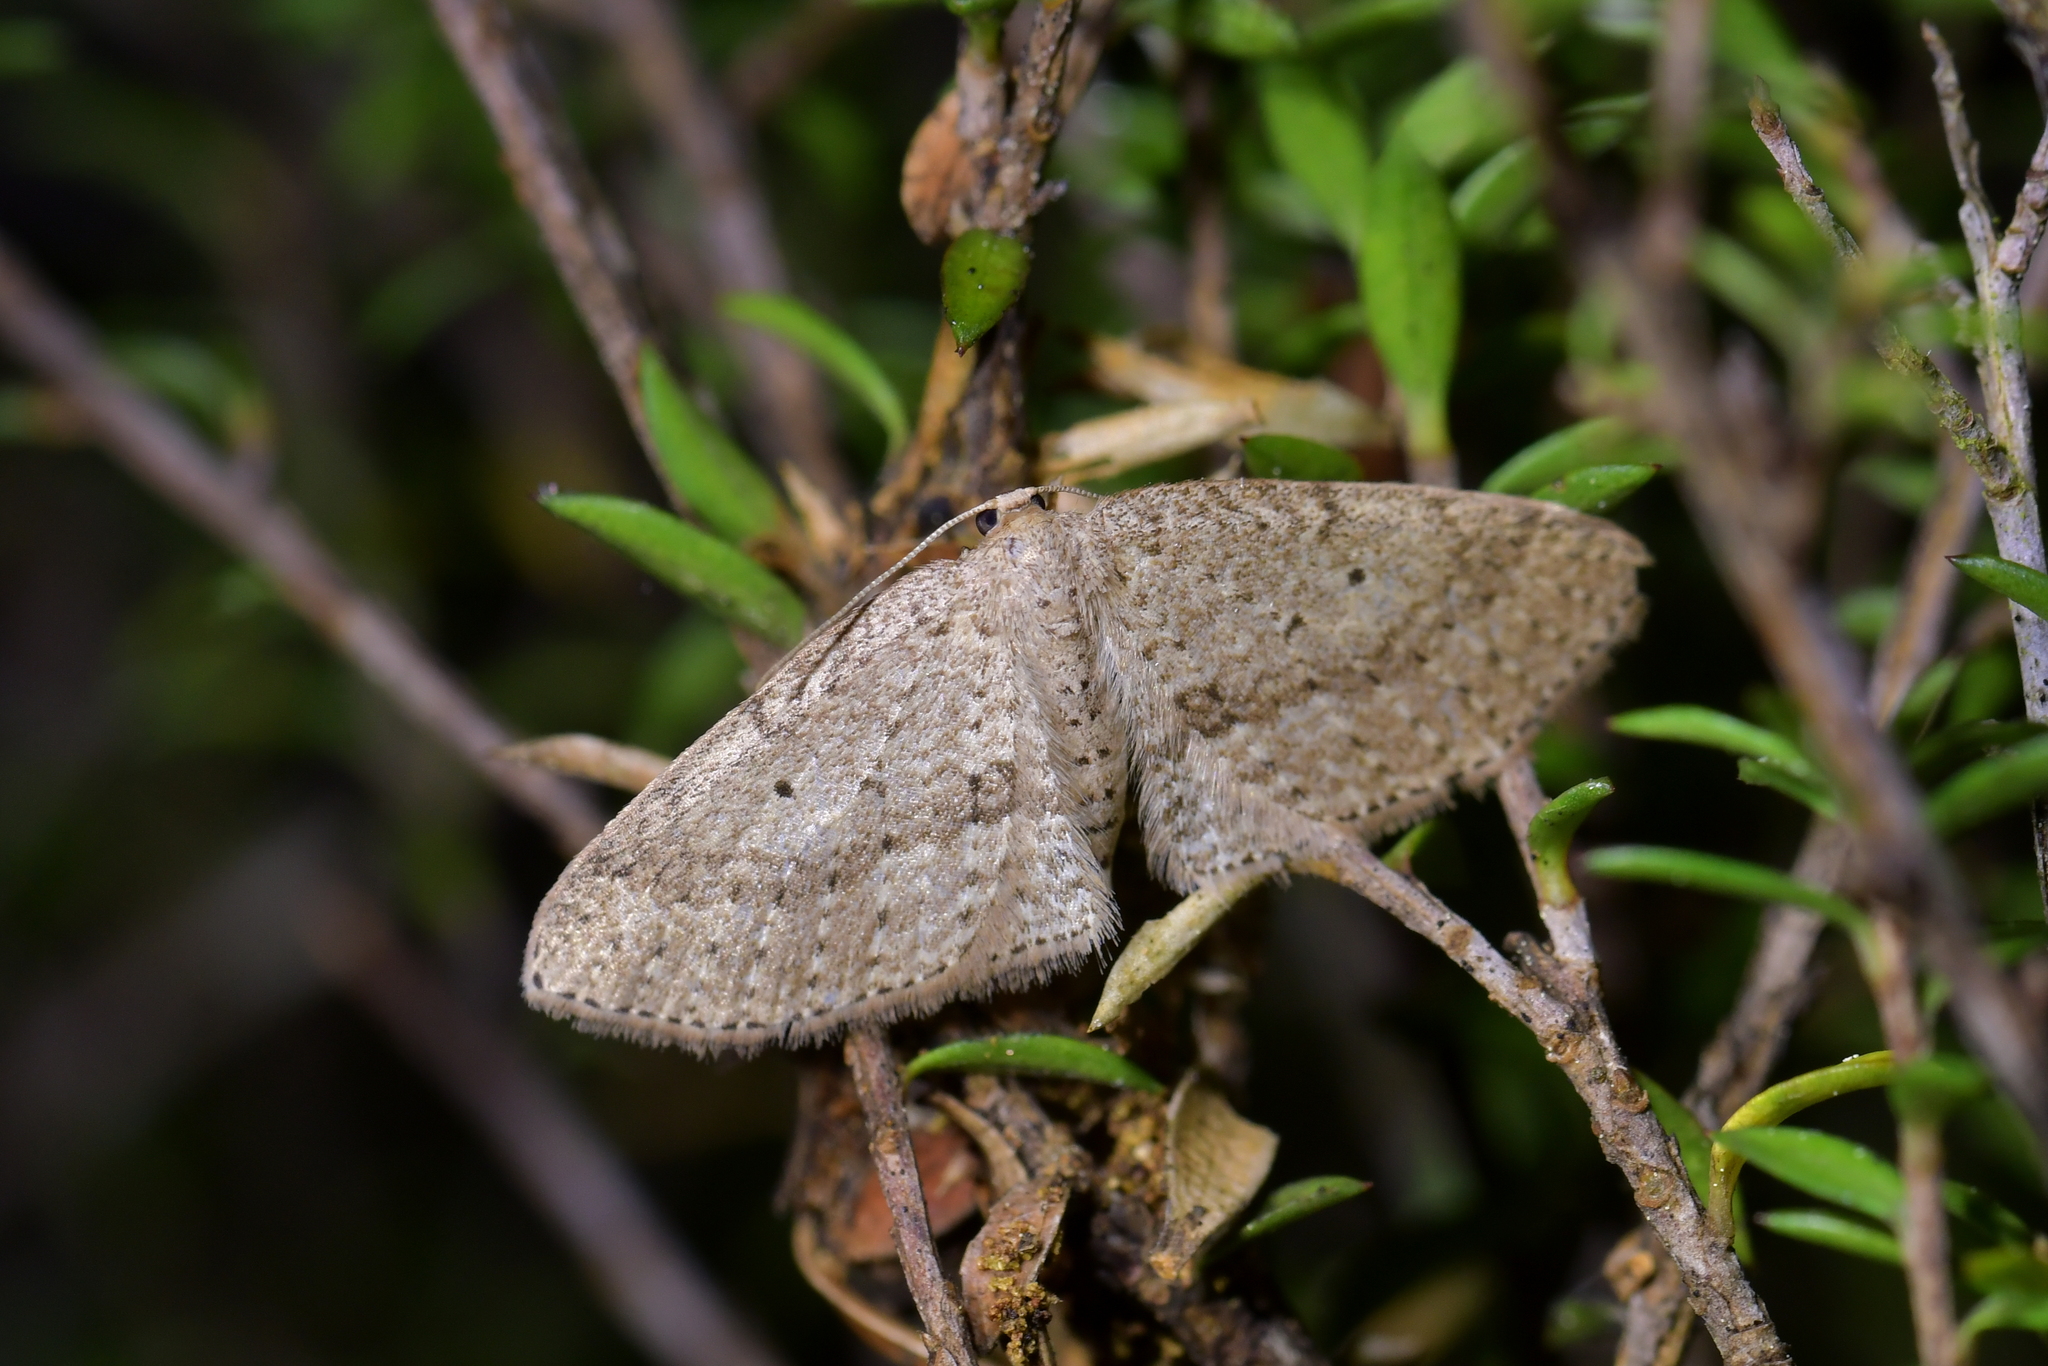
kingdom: Animalia
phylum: Arthropoda
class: Insecta
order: Lepidoptera
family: Geometridae
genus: Poecilasthena
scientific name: Poecilasthena schistaria
